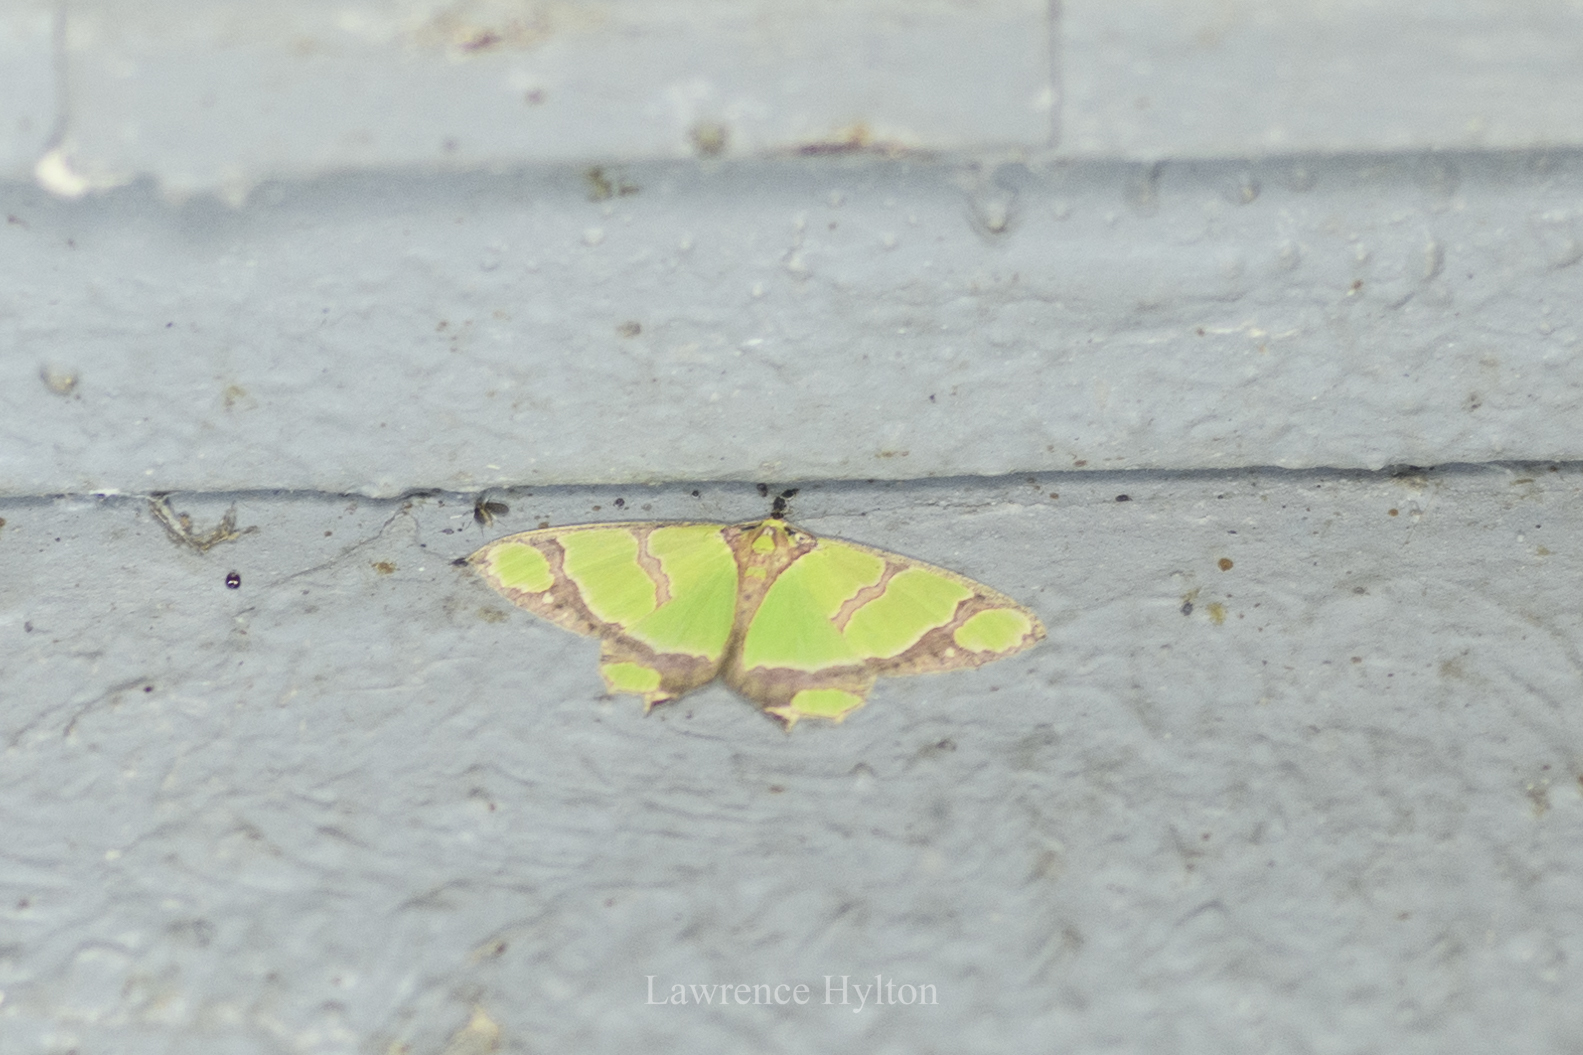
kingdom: Animalia
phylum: Arthropoda
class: Insecta
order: Lepidoptera
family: Geometridae
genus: Agathia
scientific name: Agathia carissima
